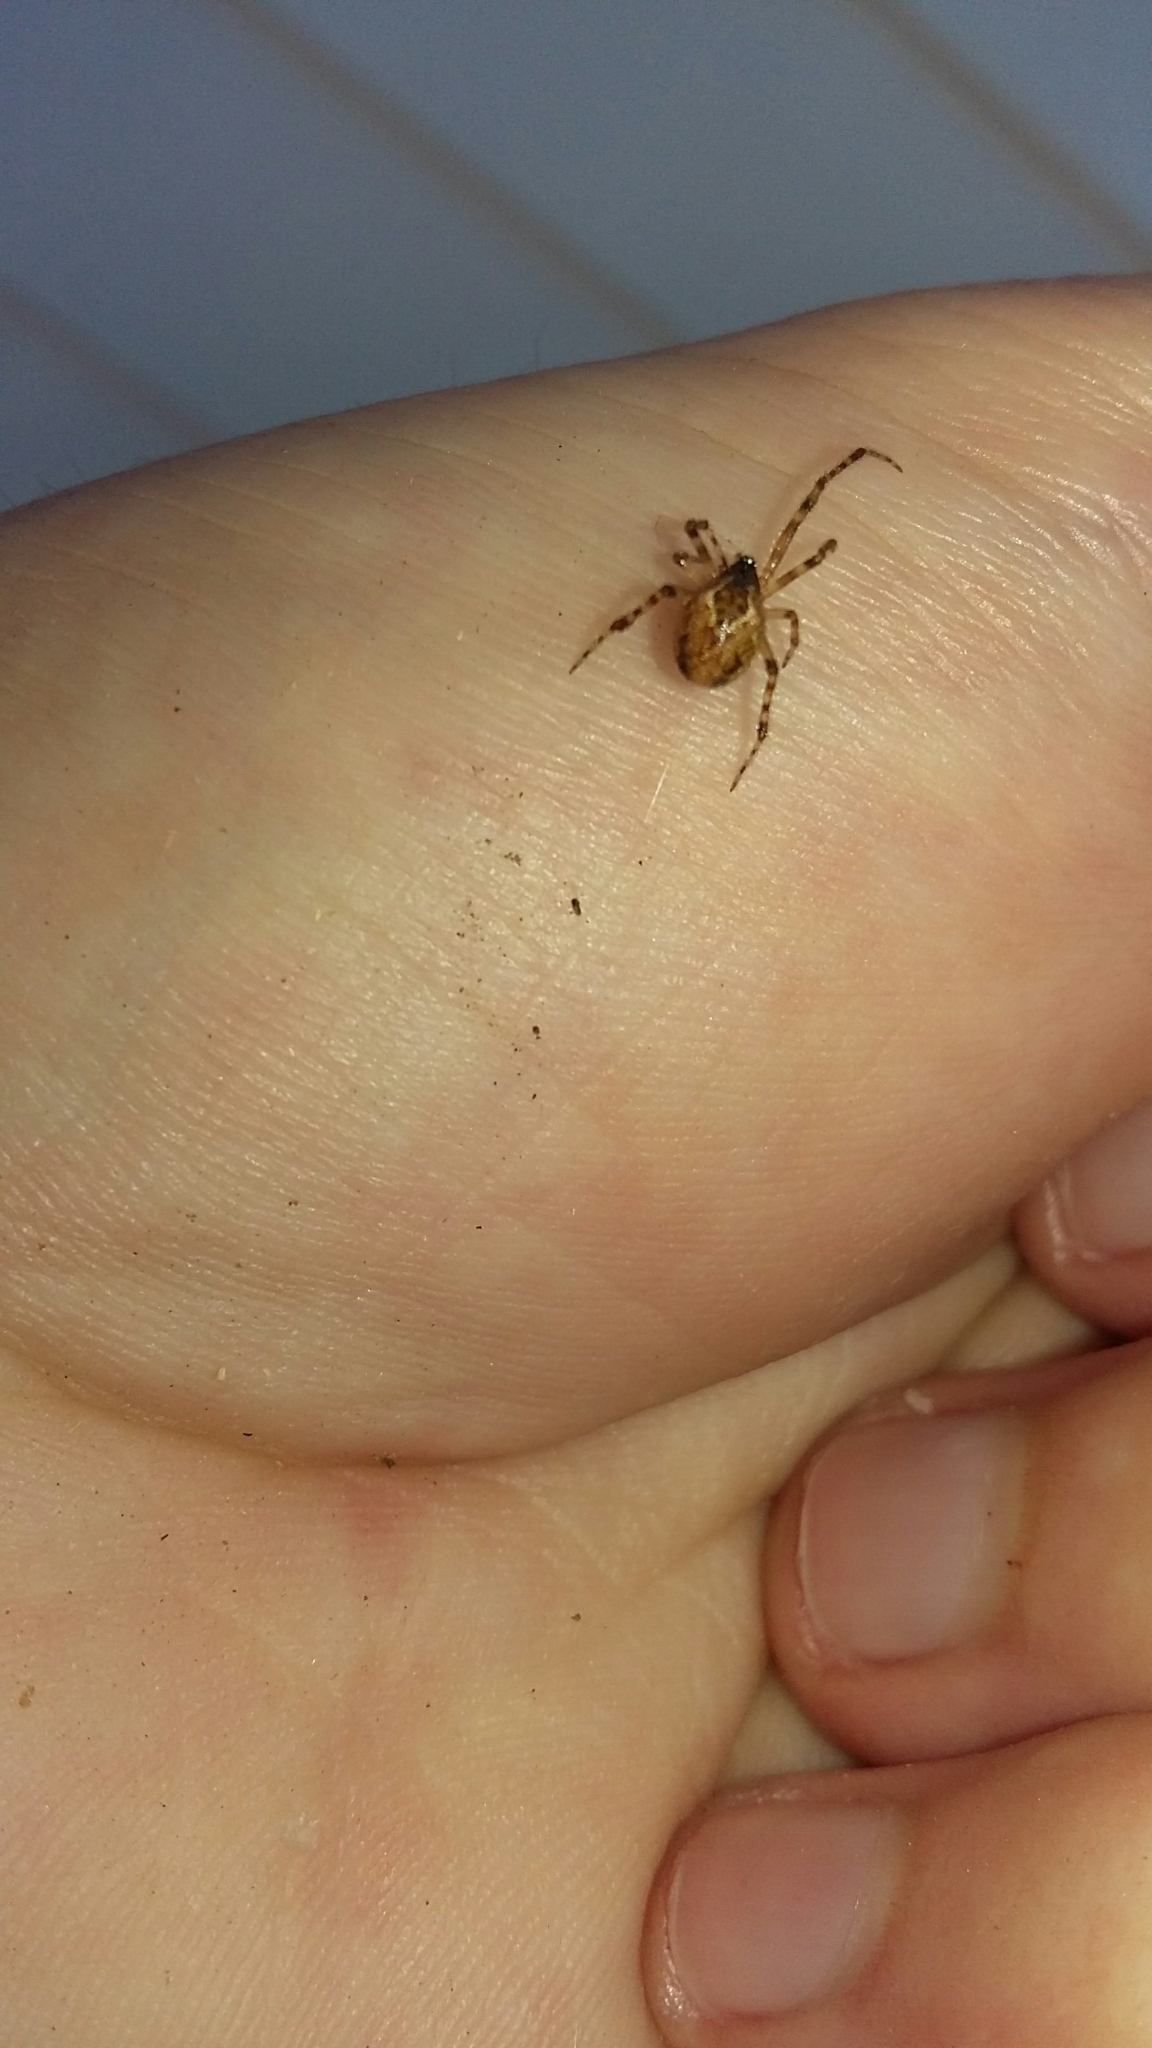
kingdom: Animalia
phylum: Arthropoda
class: Arachnida
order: Araneae
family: Theridiidae
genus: Cryptachaea
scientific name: Cryptachaea veruculata
